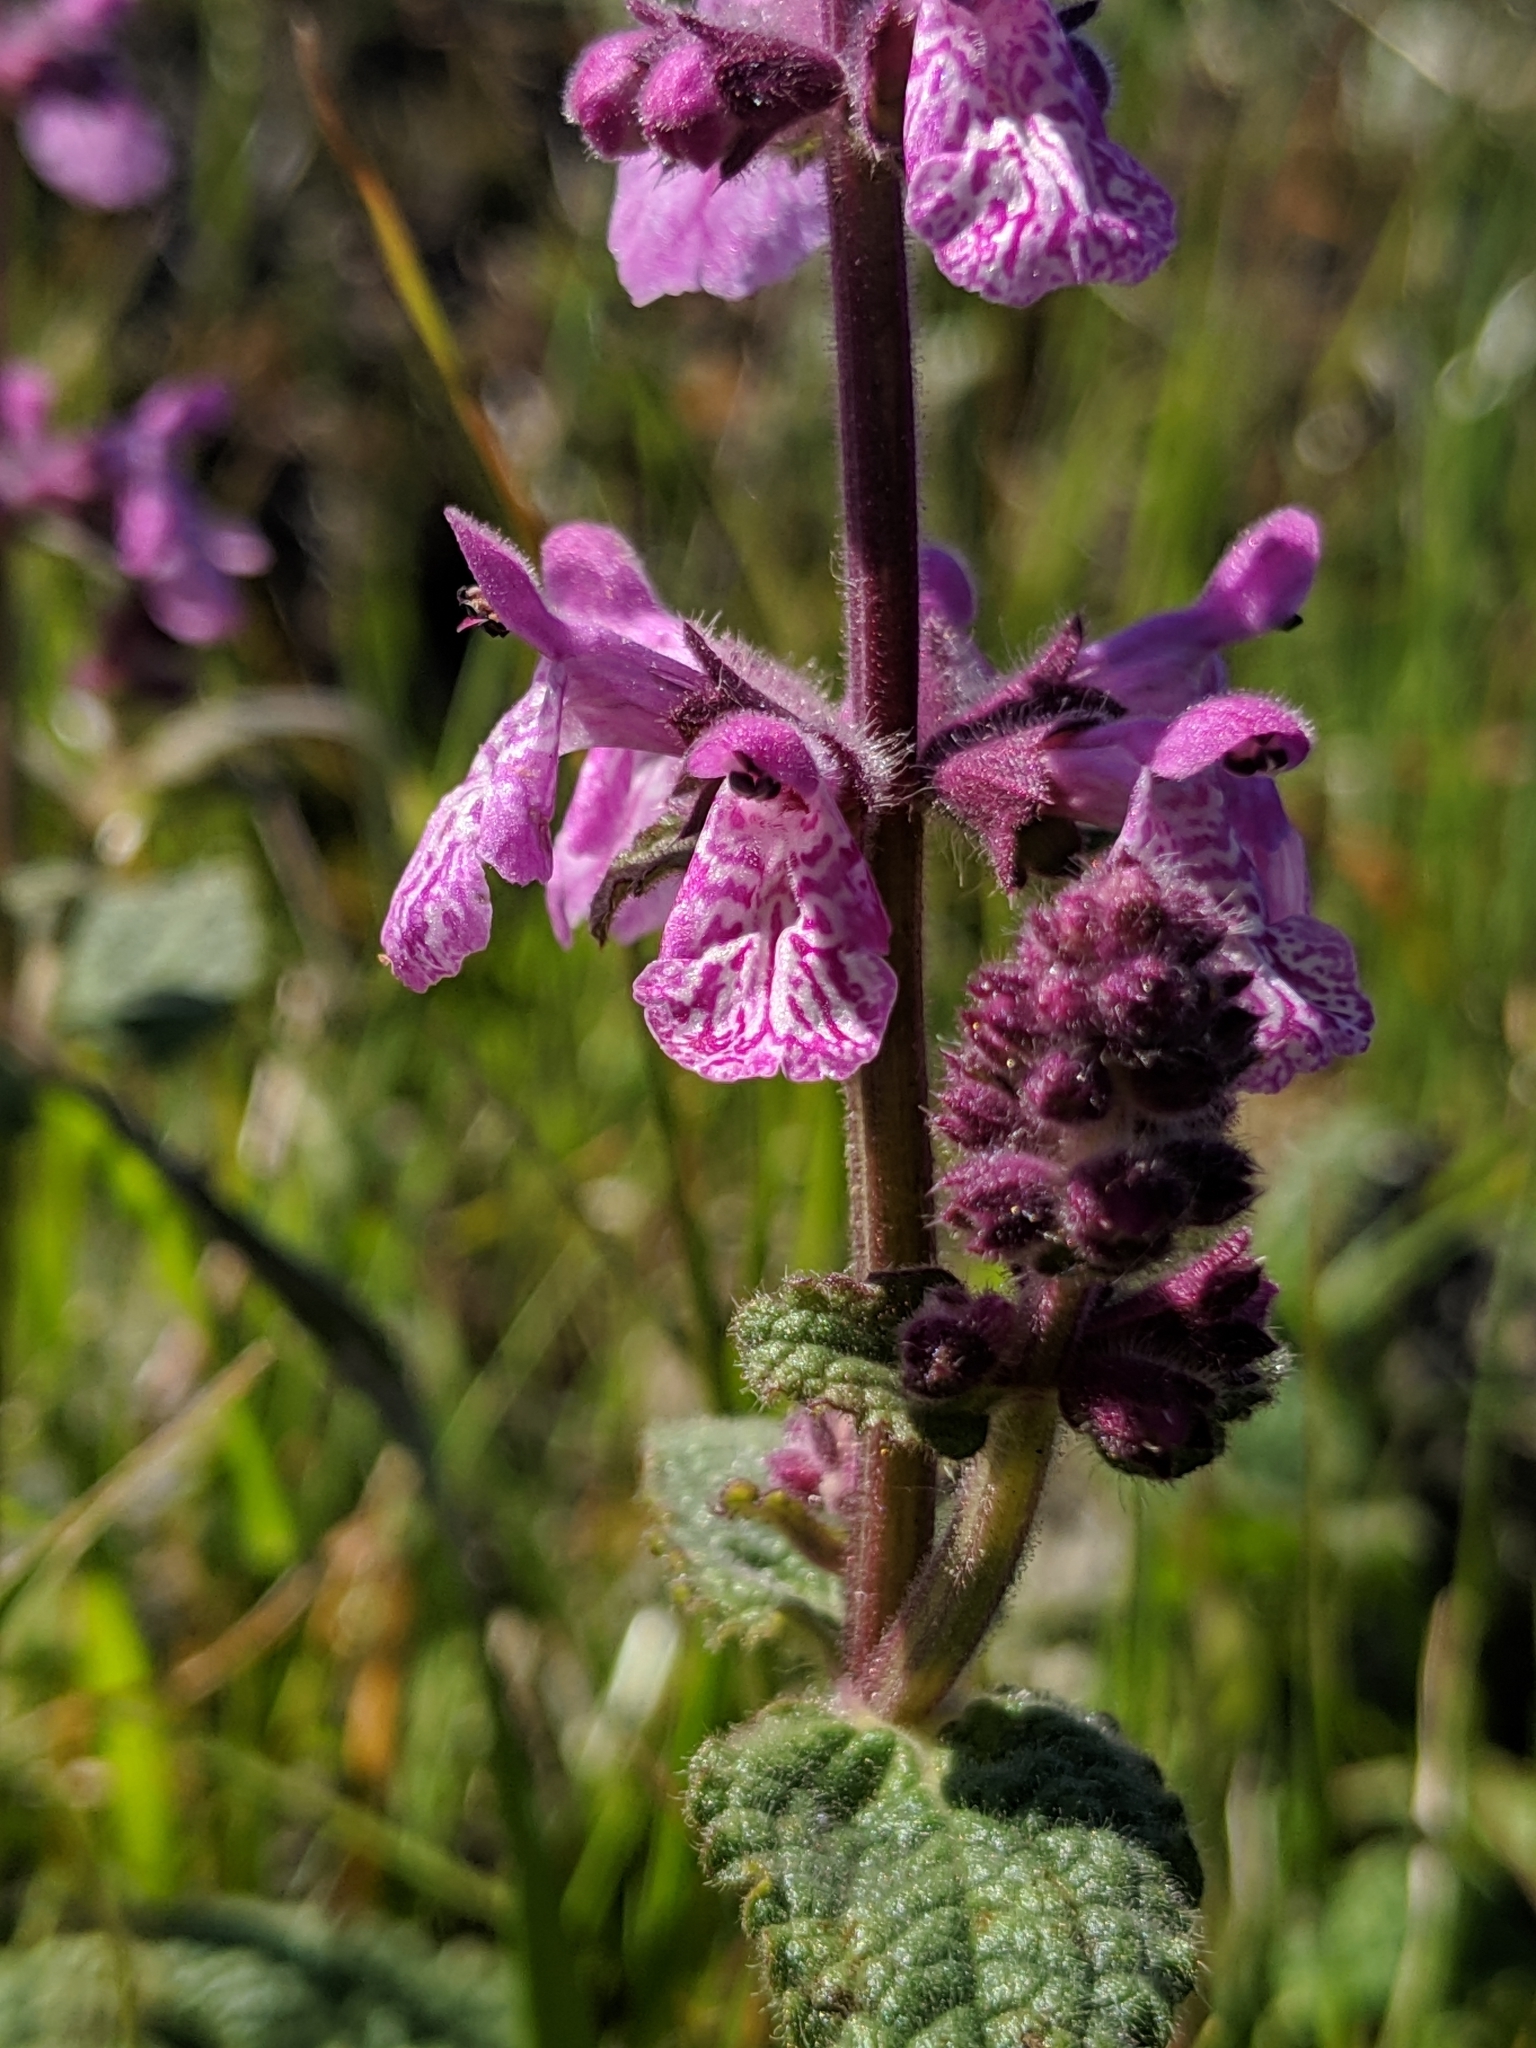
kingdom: Plantae
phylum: Tracheophyta
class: Magnoliopsida
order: Lamiales
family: Lamiaceae
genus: Stachys
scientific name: Stachys bullata
